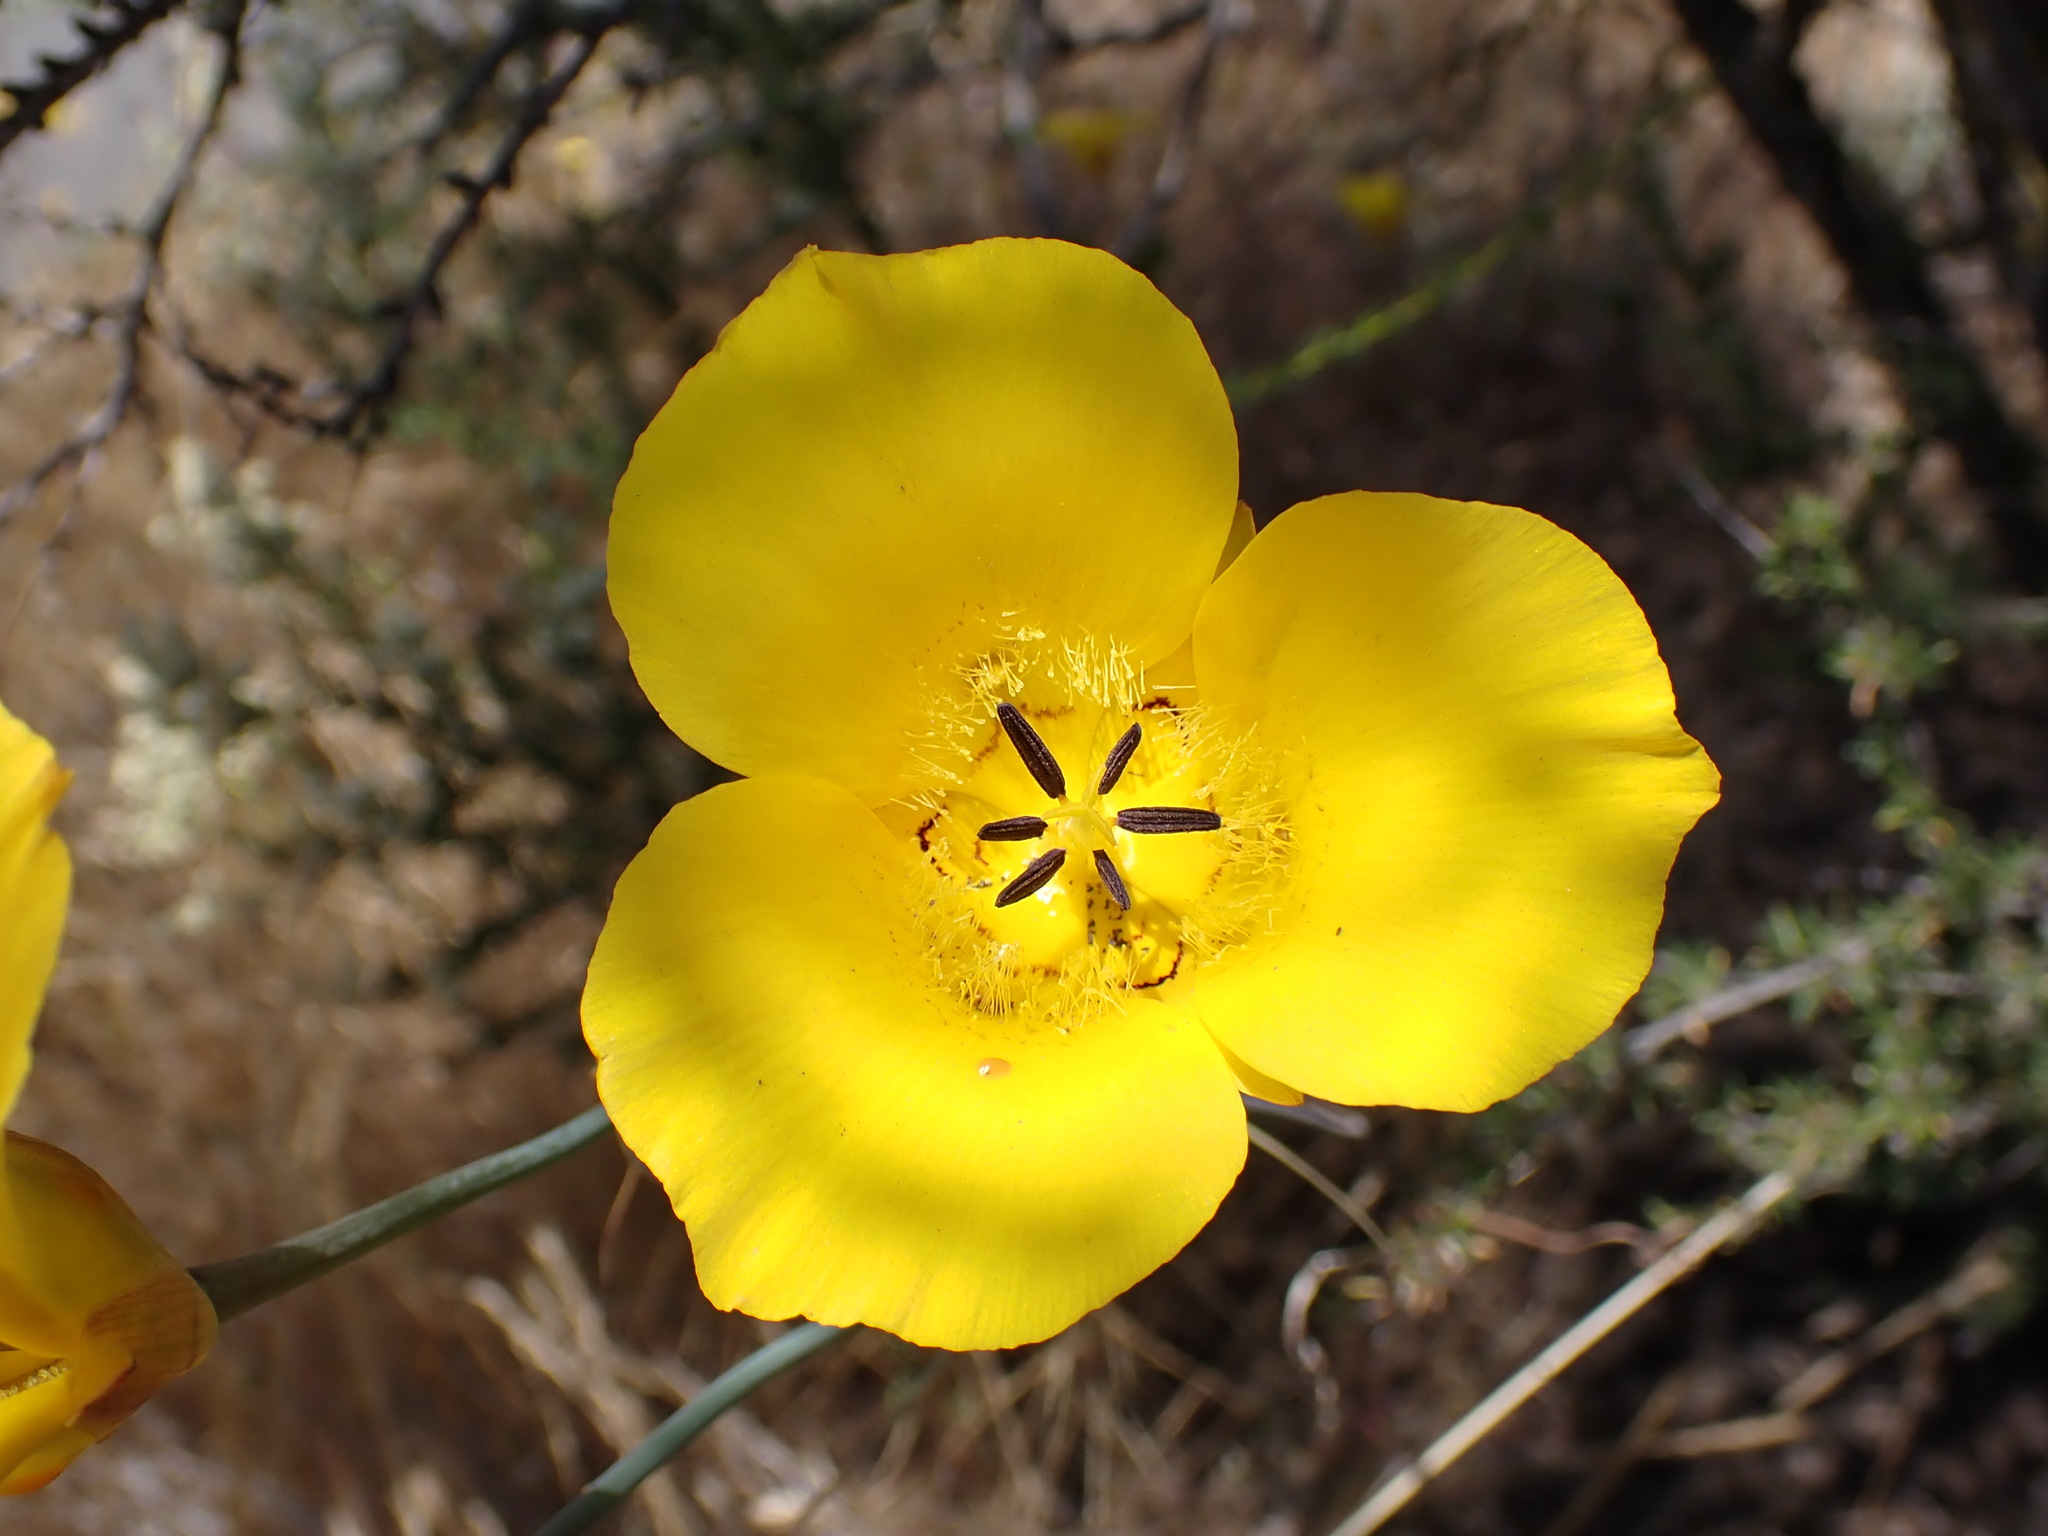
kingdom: Plantae
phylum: Tracheophyta
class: Liliopsida
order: Liliales
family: Liliaceae
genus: Calochortus
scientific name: Calochortus clavatus
